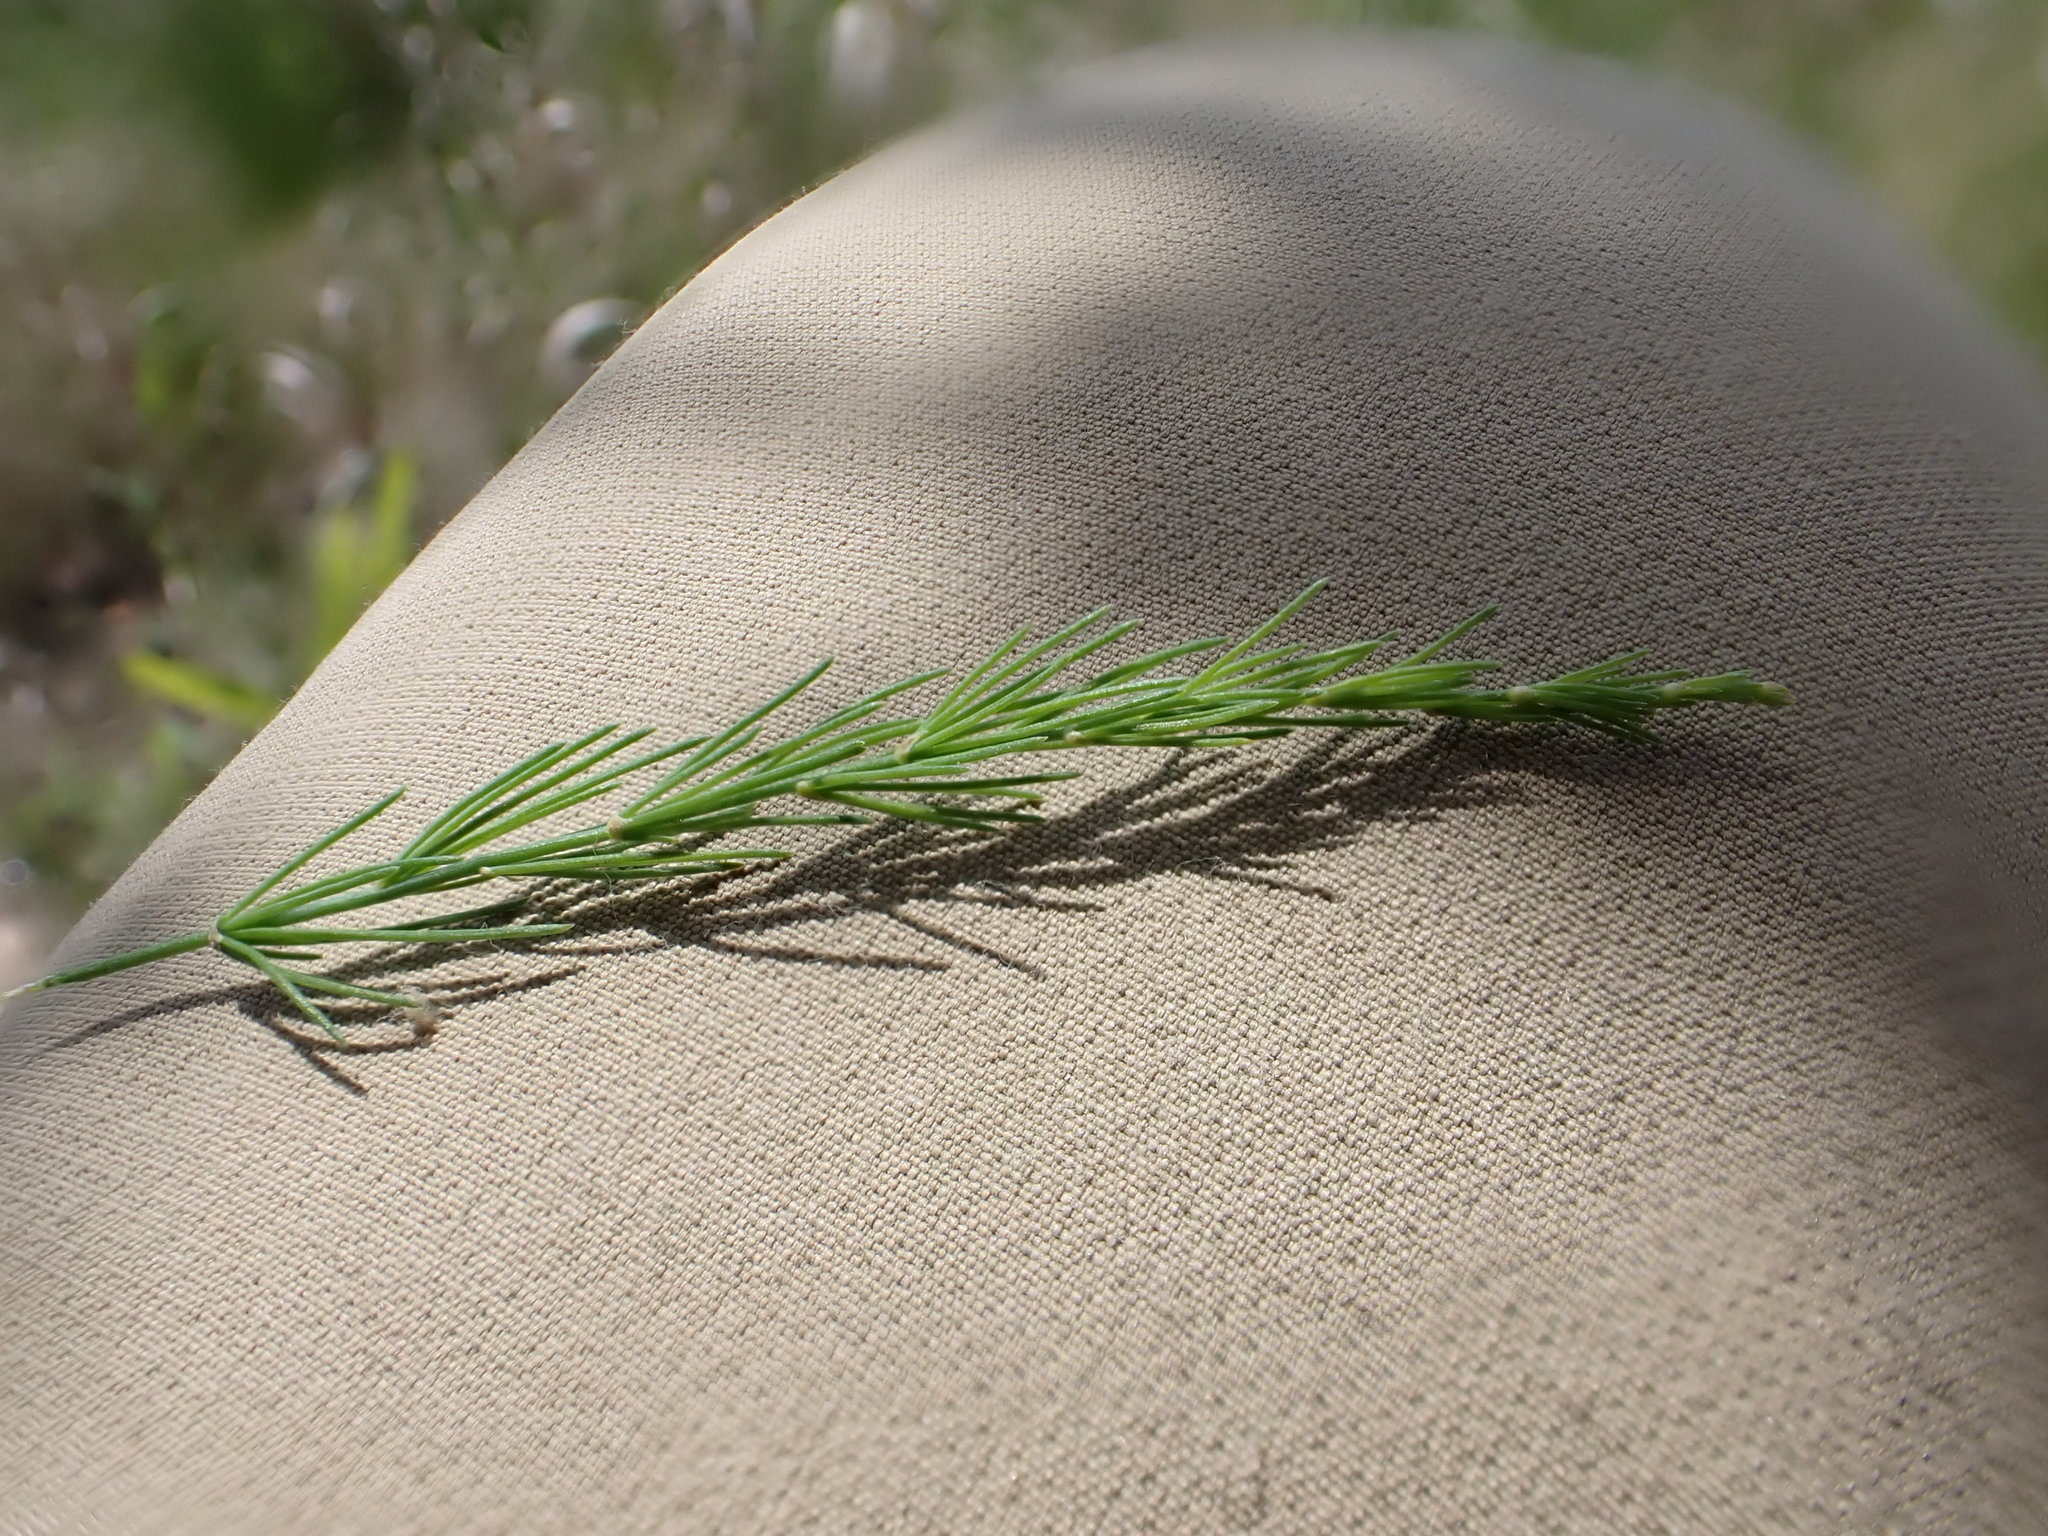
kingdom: Plantae
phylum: Tracheophyta
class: Liliopsida
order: Asparagales
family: Asparagaceae
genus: Asparagus
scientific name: Asparagus officinalis
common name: Garden asparagus
